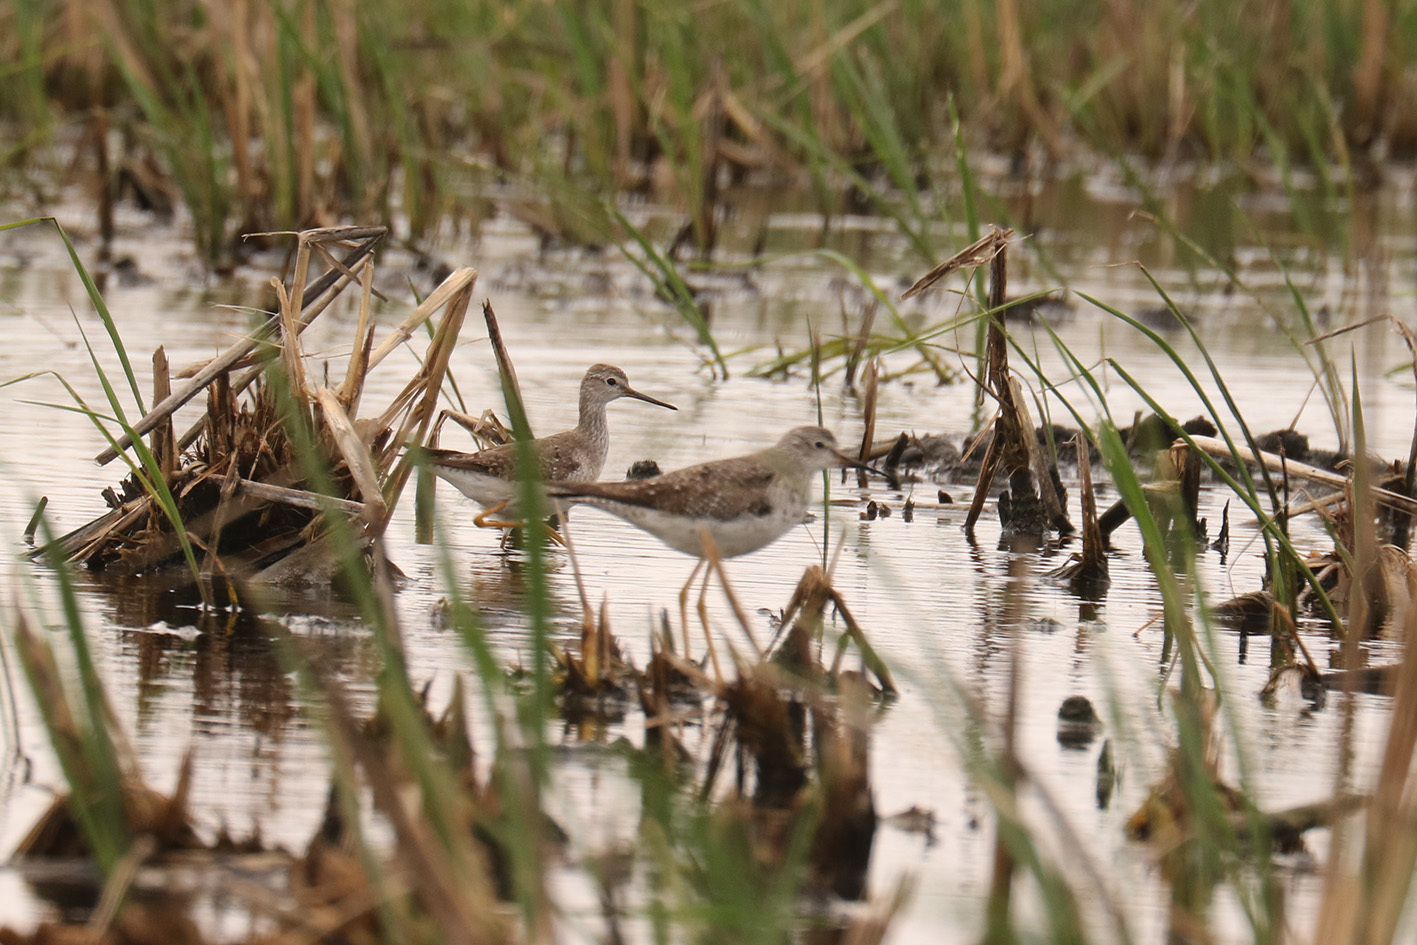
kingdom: Animalia
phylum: Chordata
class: Aves
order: Charadriiformes
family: Scolopacidae
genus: Tringa
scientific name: Tringa melanoleuca
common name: Greater yellowlegs
